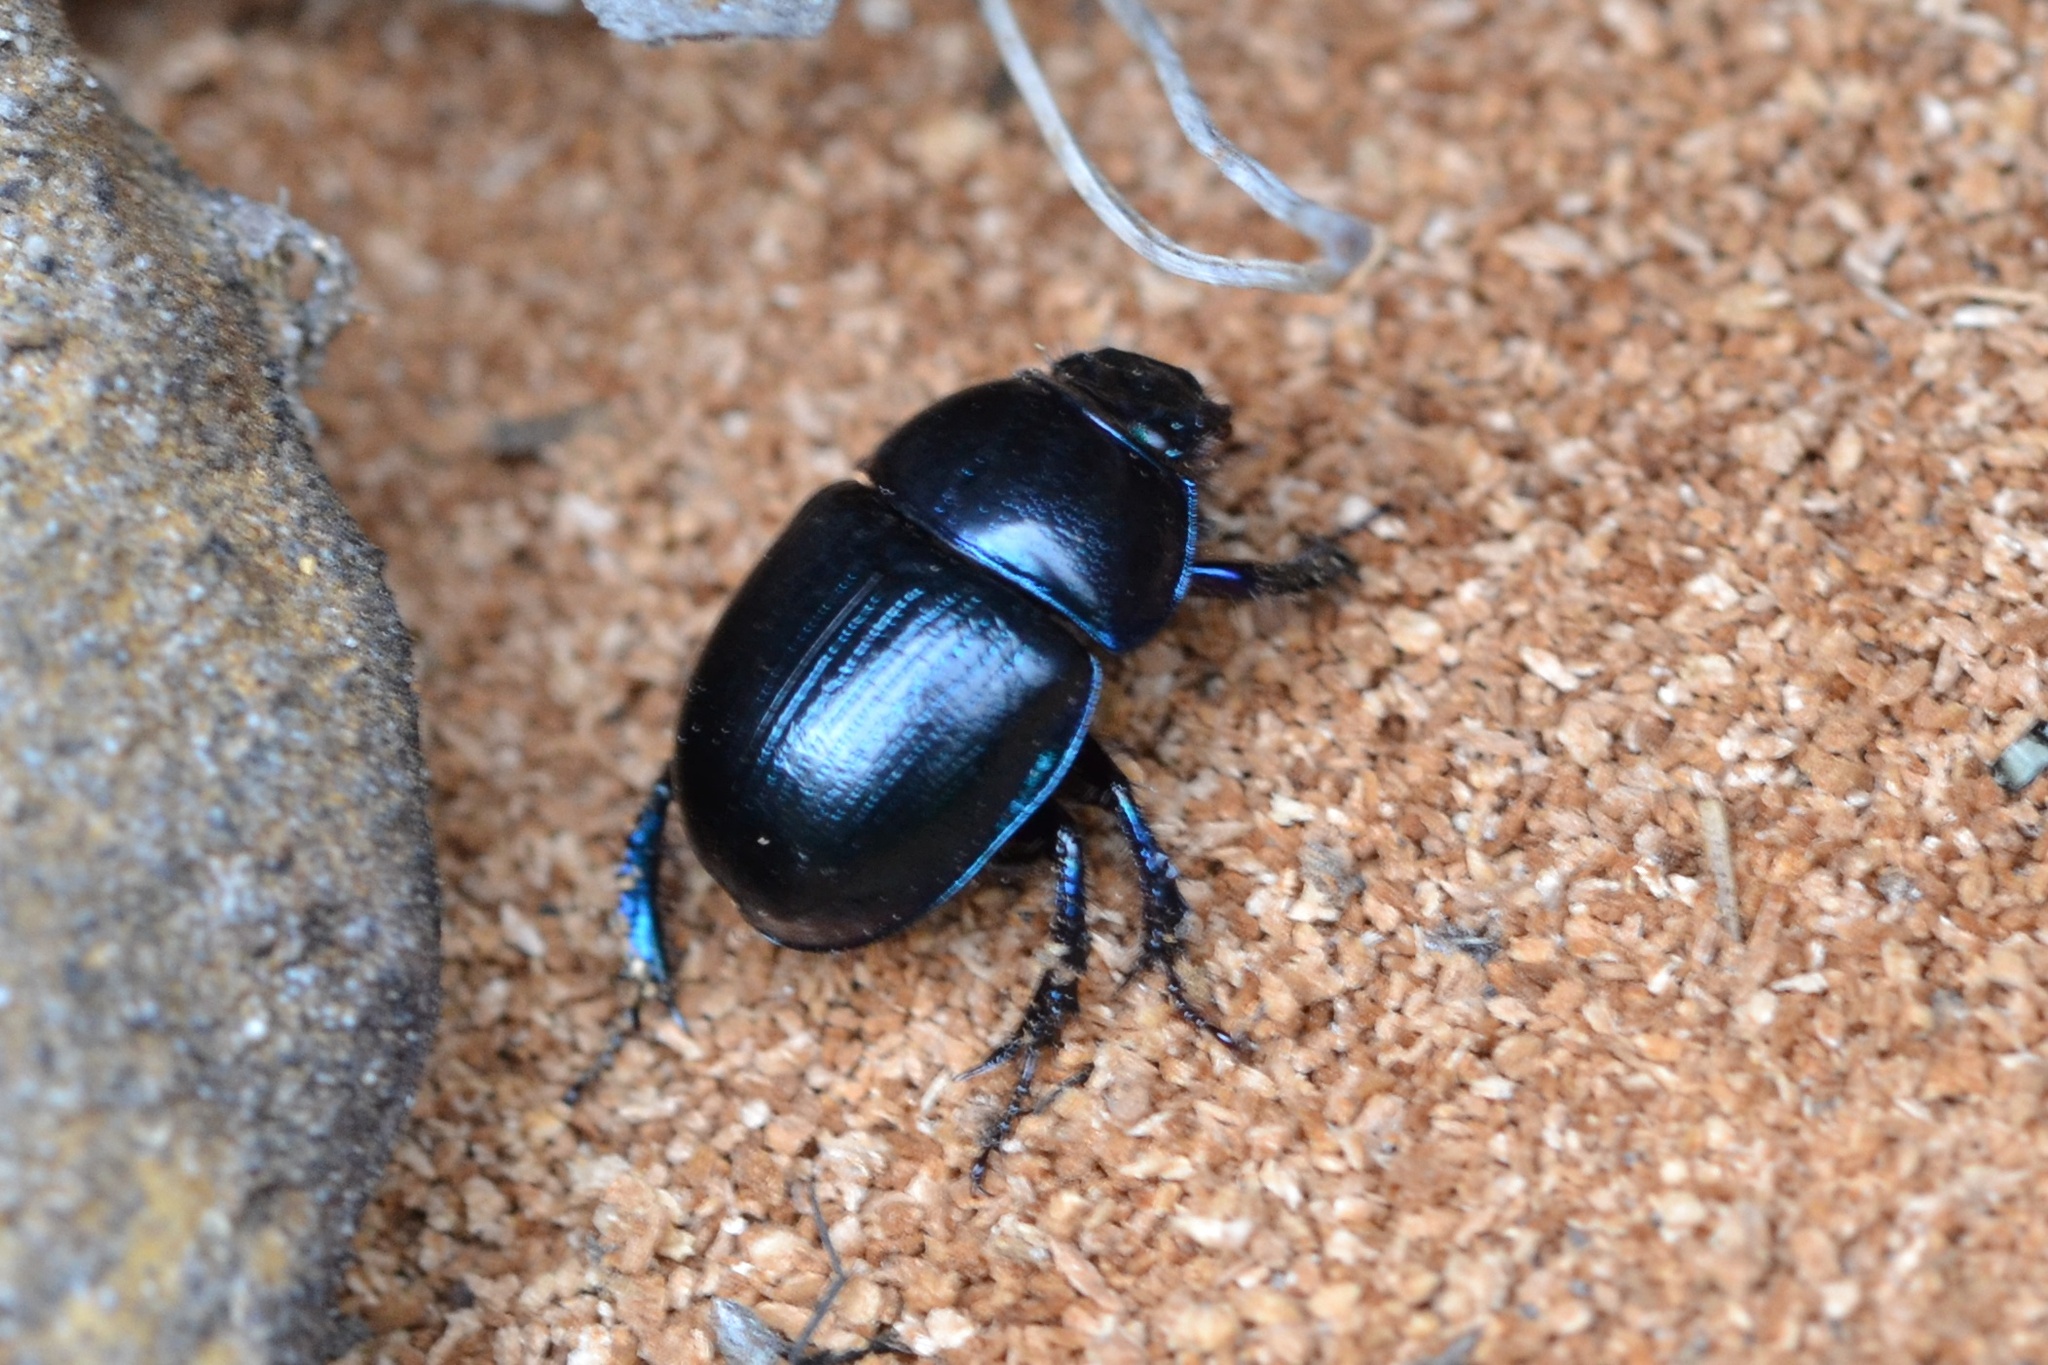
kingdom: Animalia
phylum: Arthropoda
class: Insecta
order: Coleoptera
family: Geotrupidae
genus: Anoplotrupes
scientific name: Anoplotrupes stercorosus
